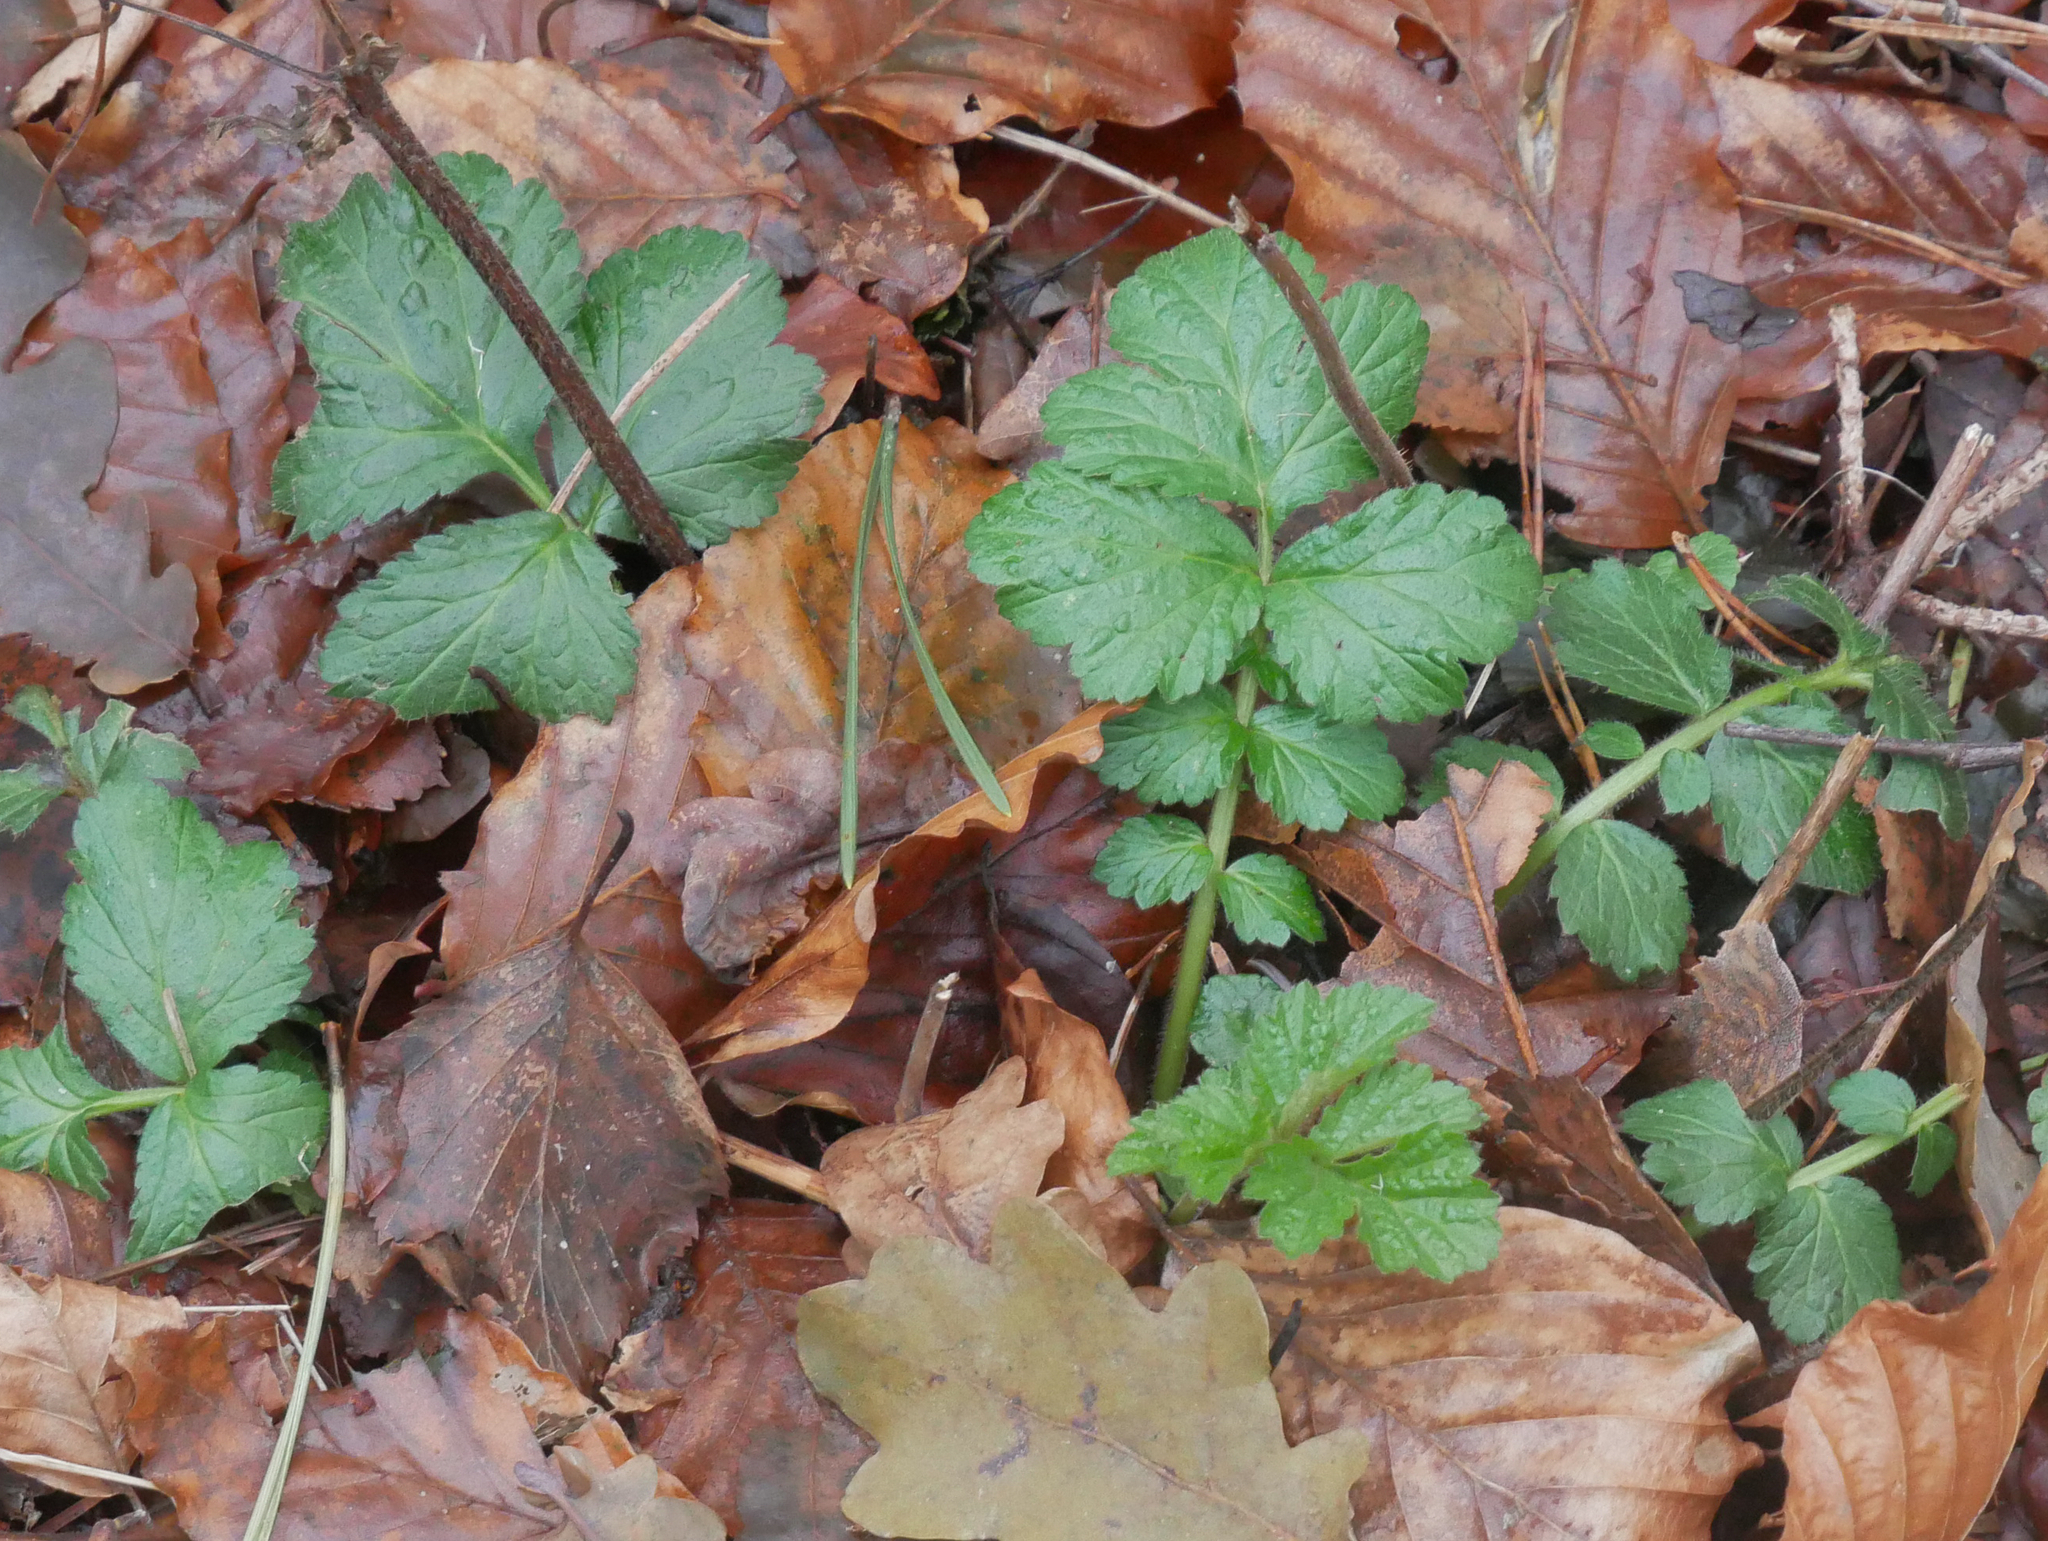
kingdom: Plantae
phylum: Tracheophyta
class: Magnoliopsida
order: Rosales
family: Rosaceae
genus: Geum
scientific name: Geum urbanum
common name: Wood avens
